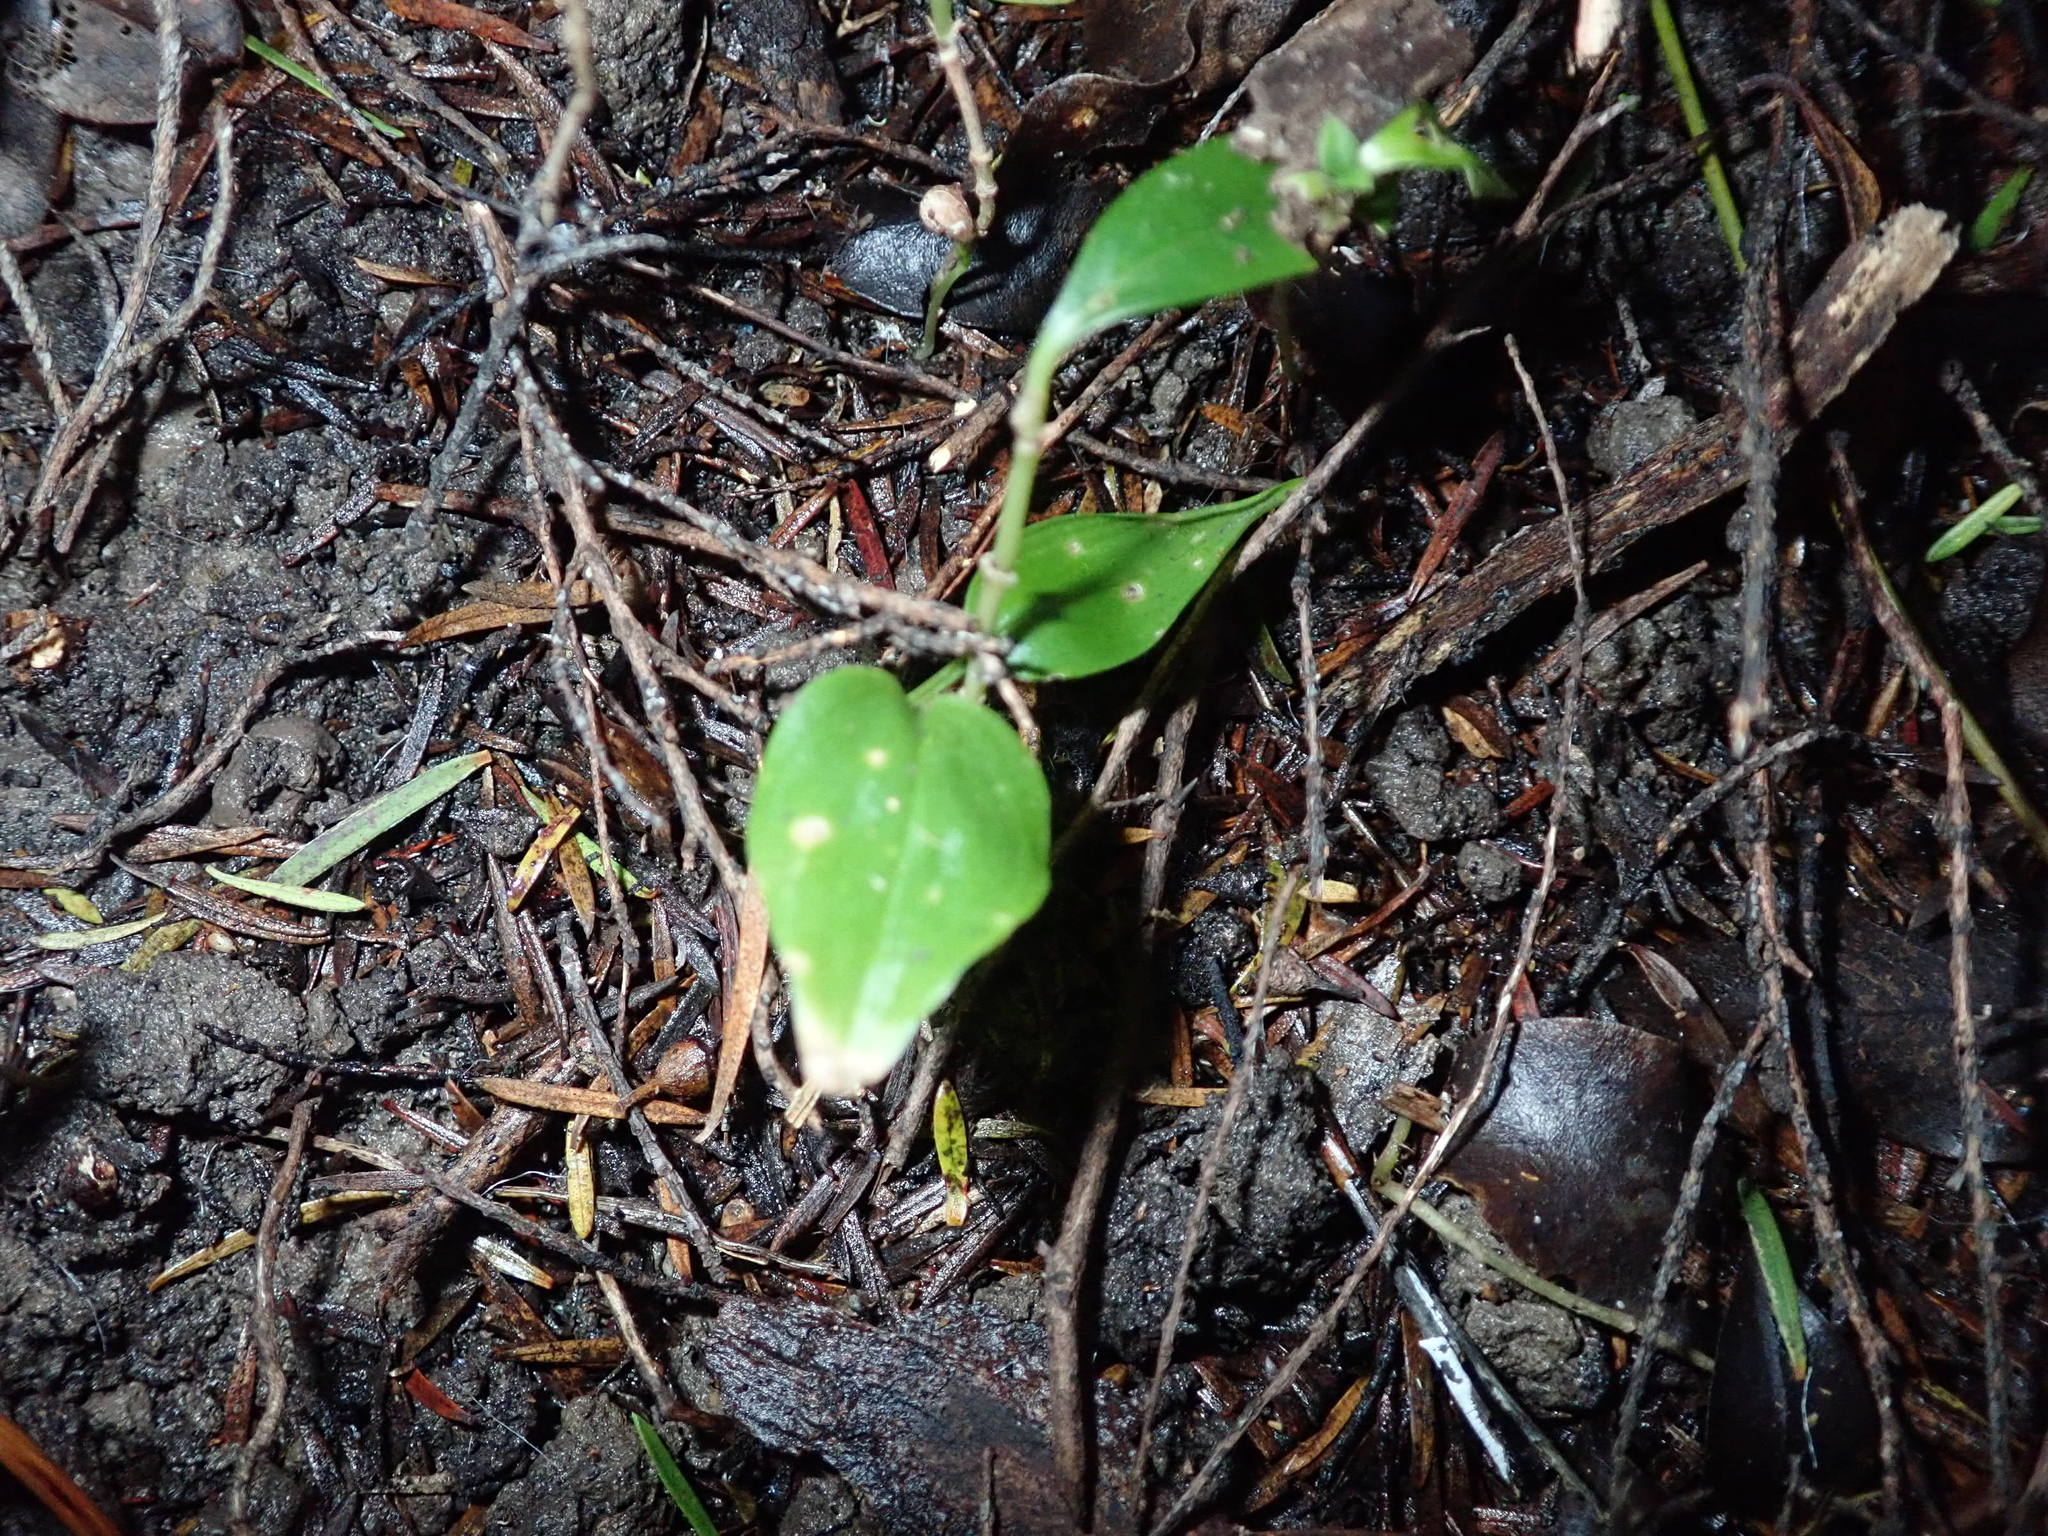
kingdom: Plantae
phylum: Tracheophyta
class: Liliopsida
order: Zingiberales
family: Zingiberaceae
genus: Hedychium
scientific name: Hedychium gardnerianum
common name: Himalayan ginger
